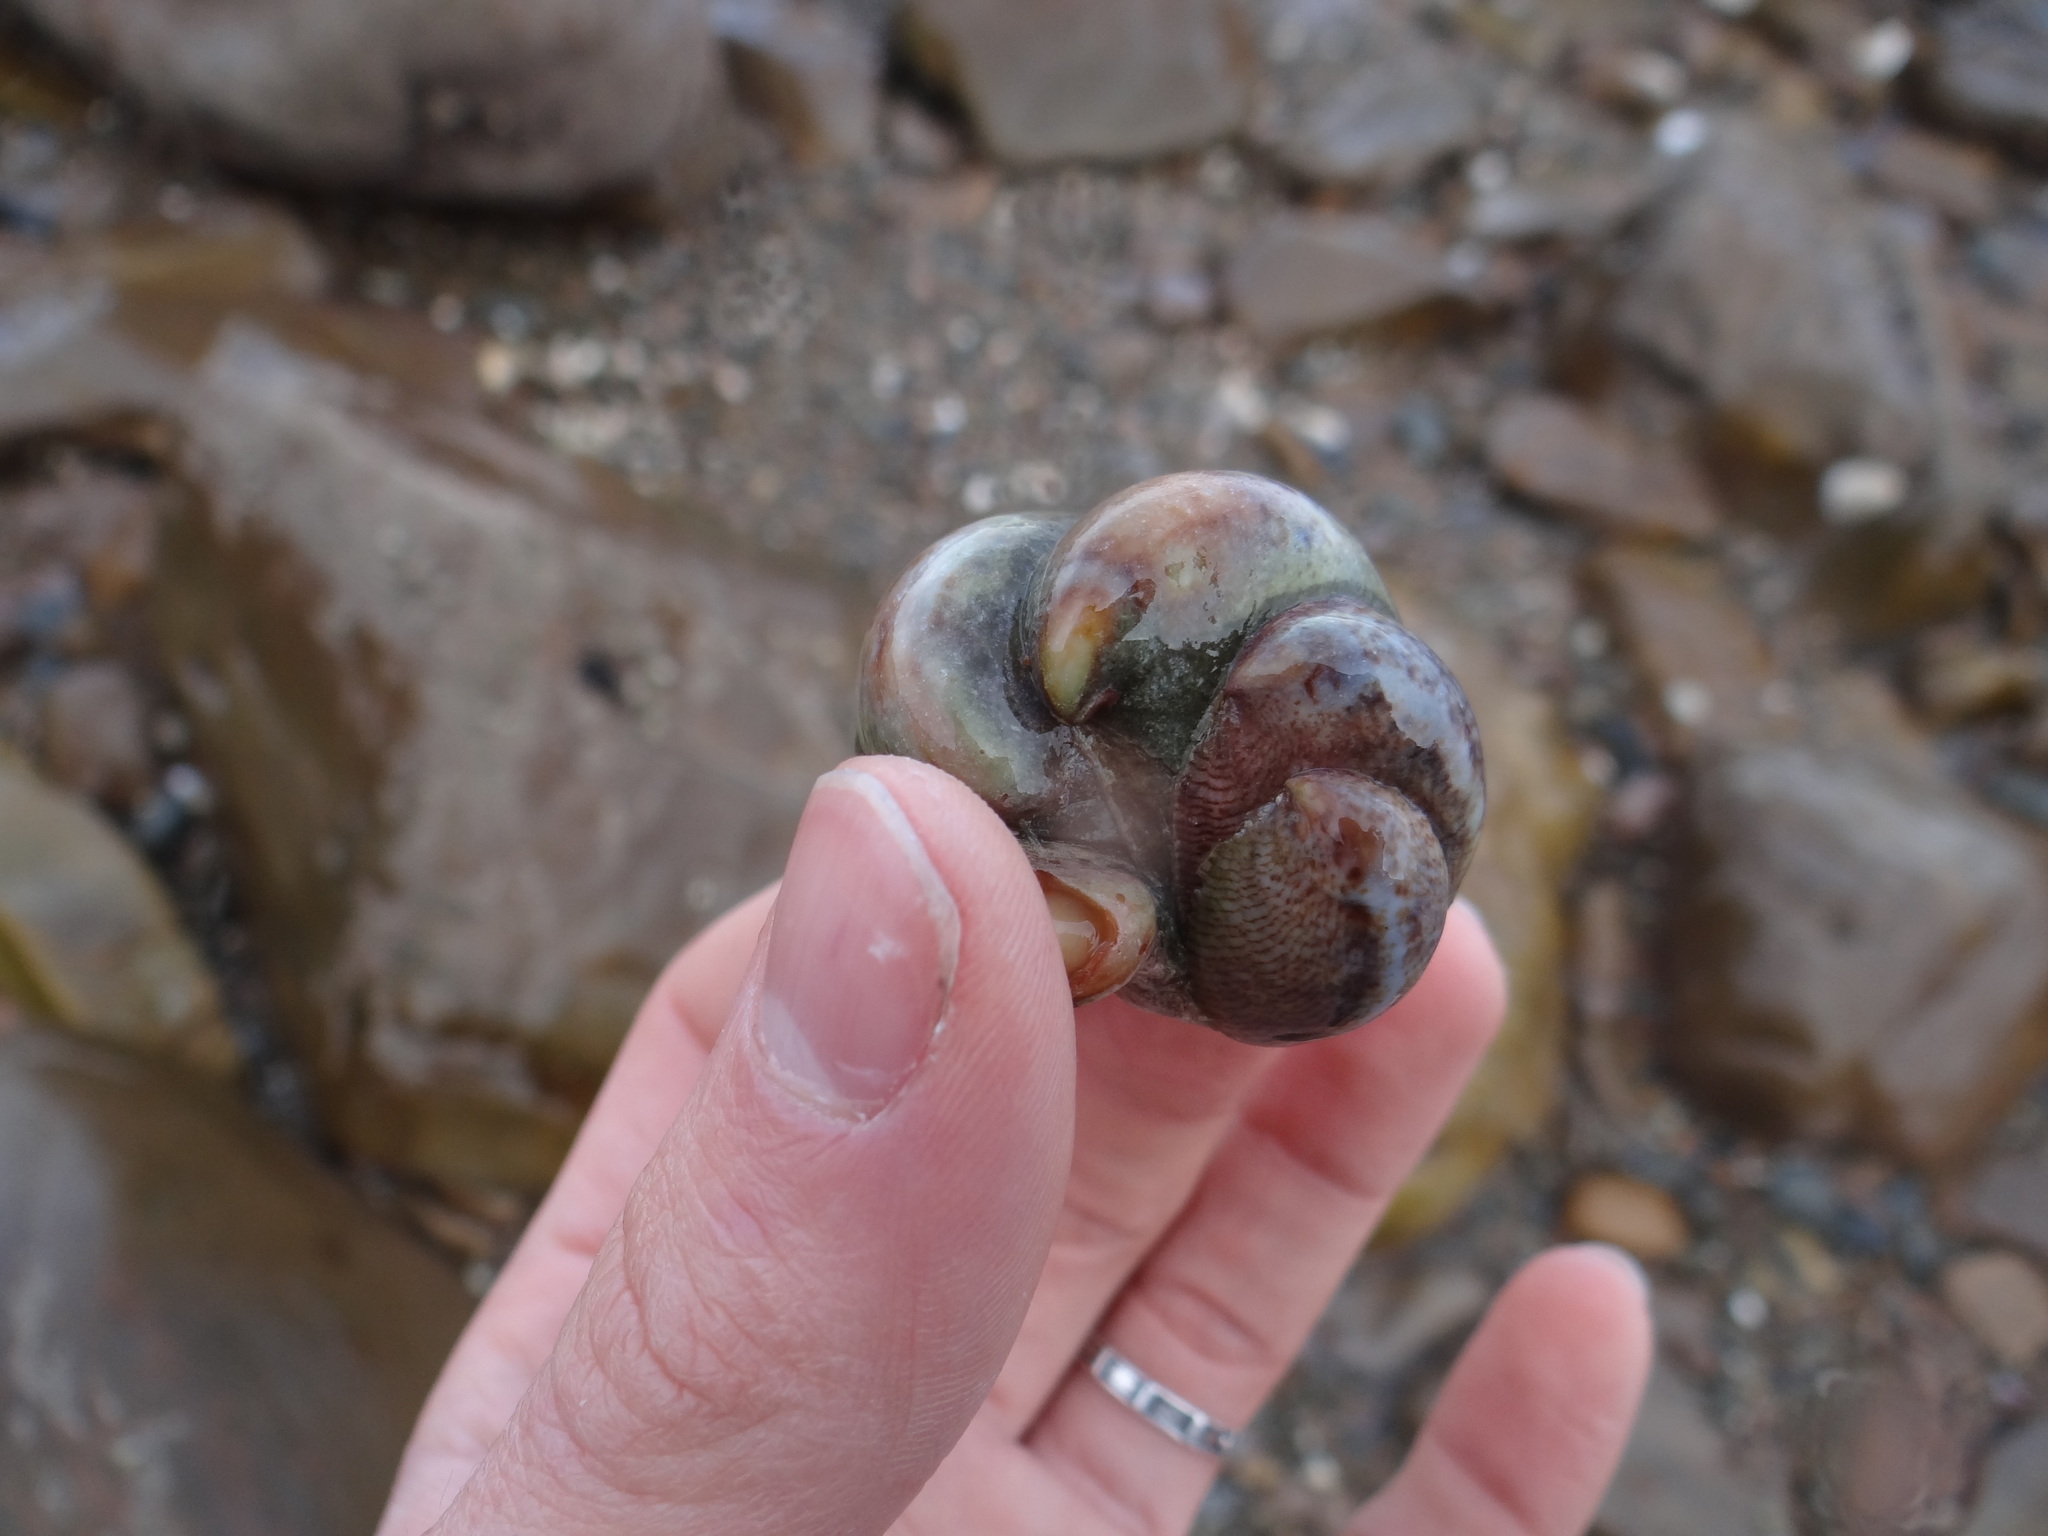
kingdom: Animalia
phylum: Mollusca
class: Gastropoda
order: Littorinimorpha
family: Calyptraeidae
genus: Crepidula
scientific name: Crepidula fornicata
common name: Slipper limpet
